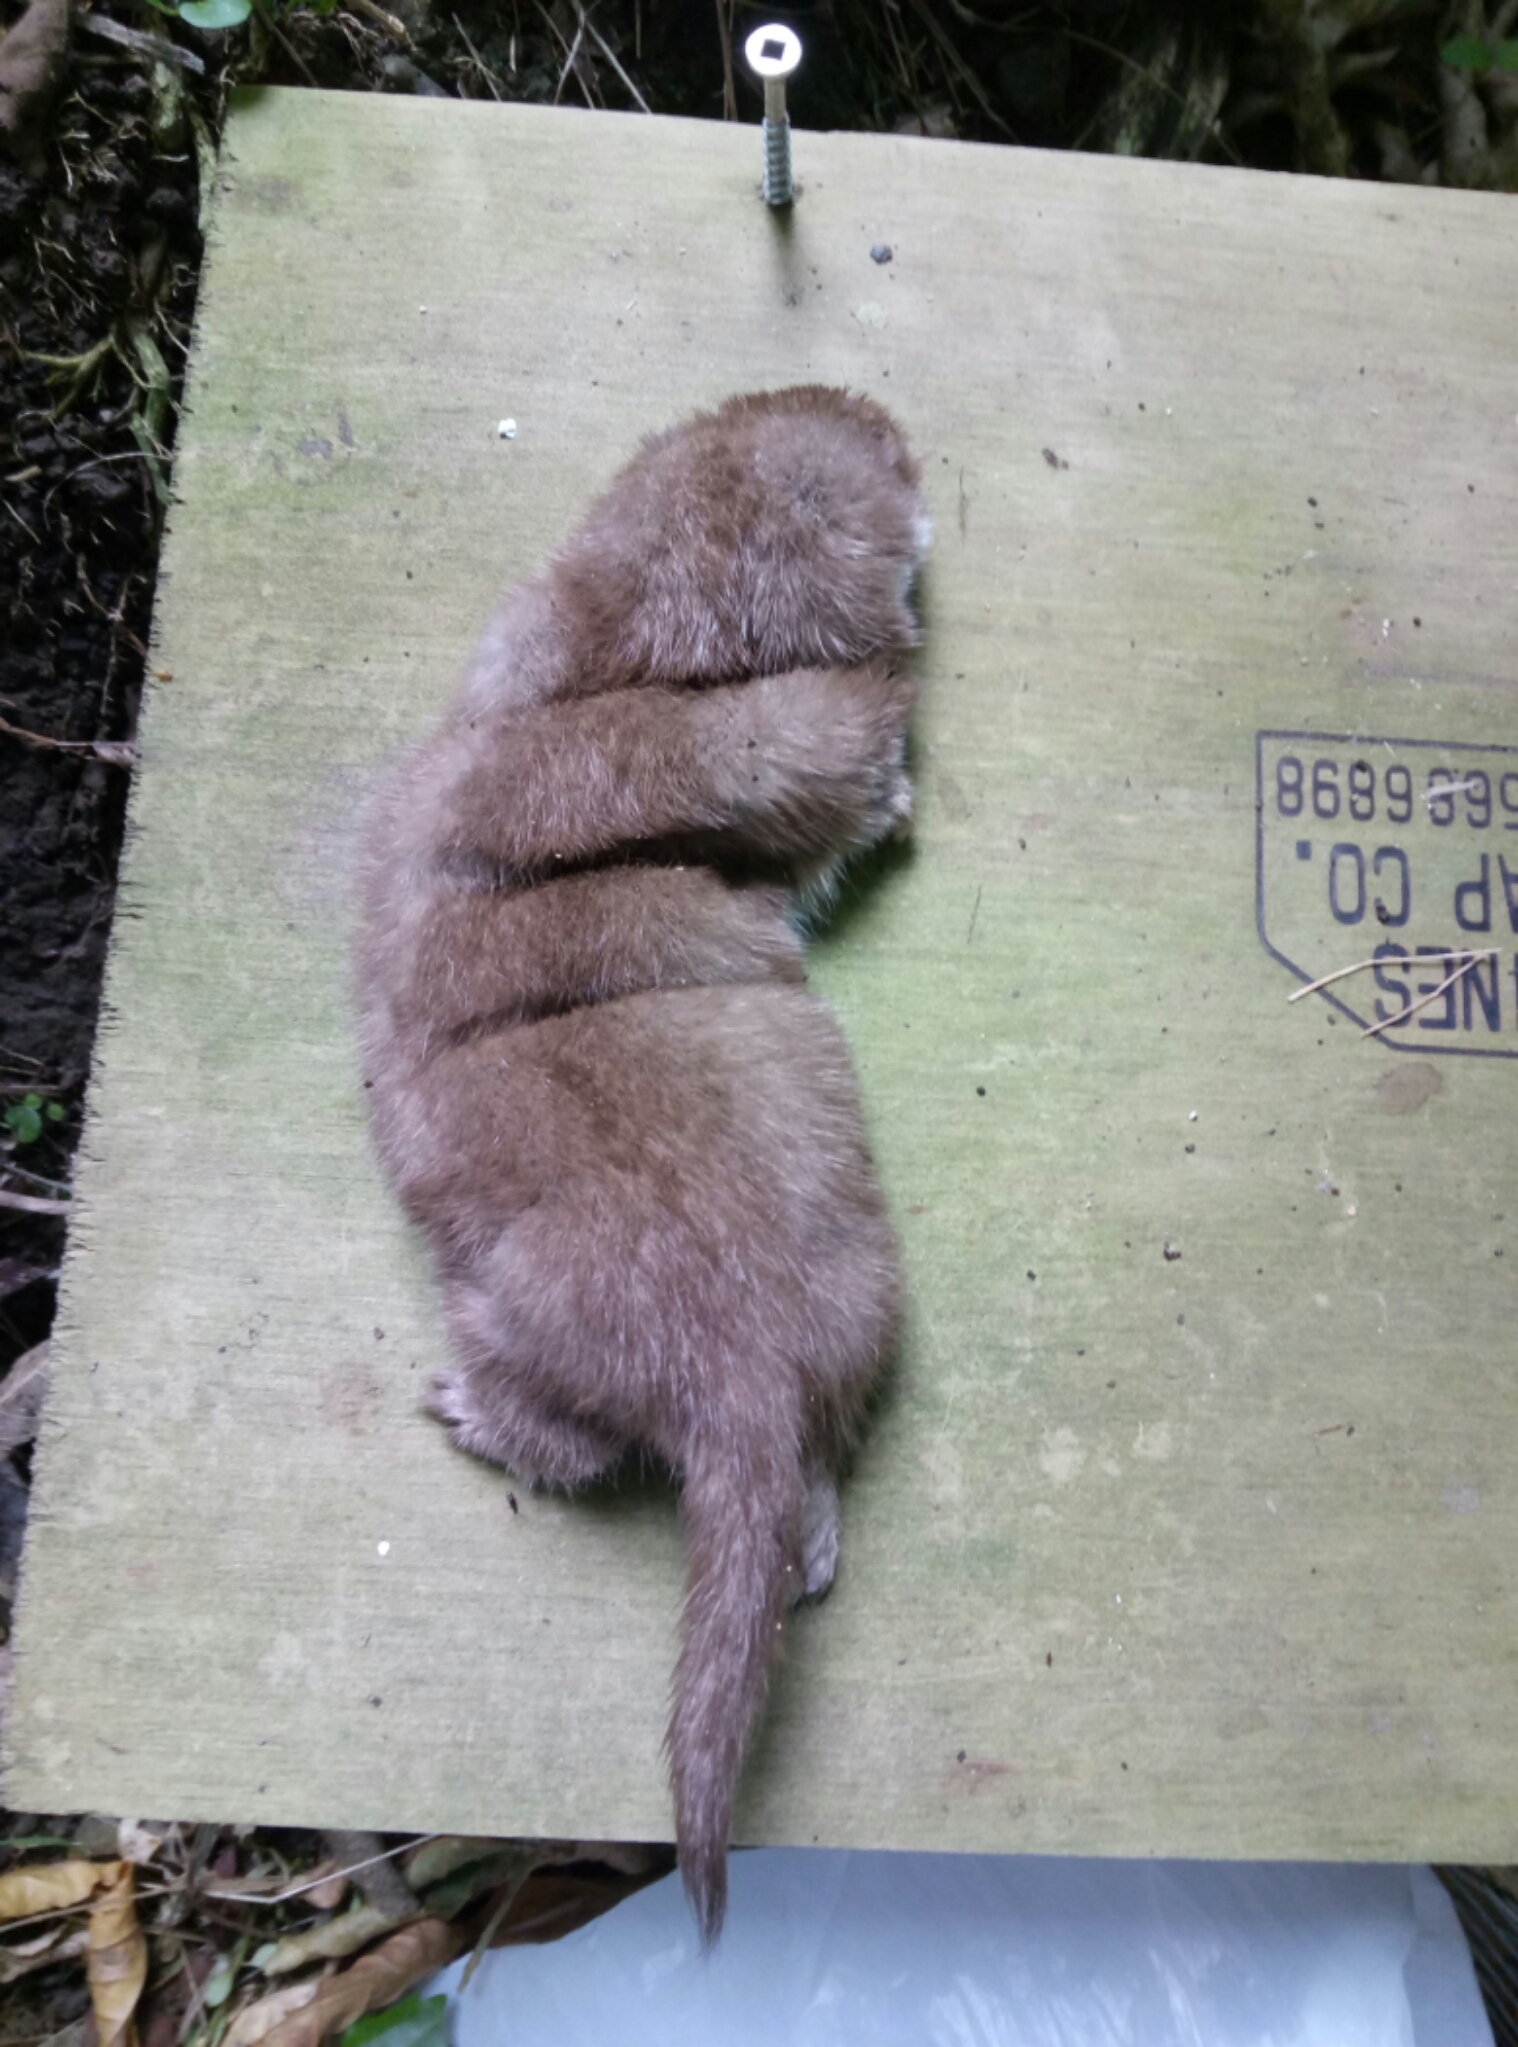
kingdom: Animalia
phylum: Chordata
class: Mammalia
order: Carnivora
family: Mustelidae
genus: Mustela
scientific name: Mustela nivalis
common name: Least weasel
